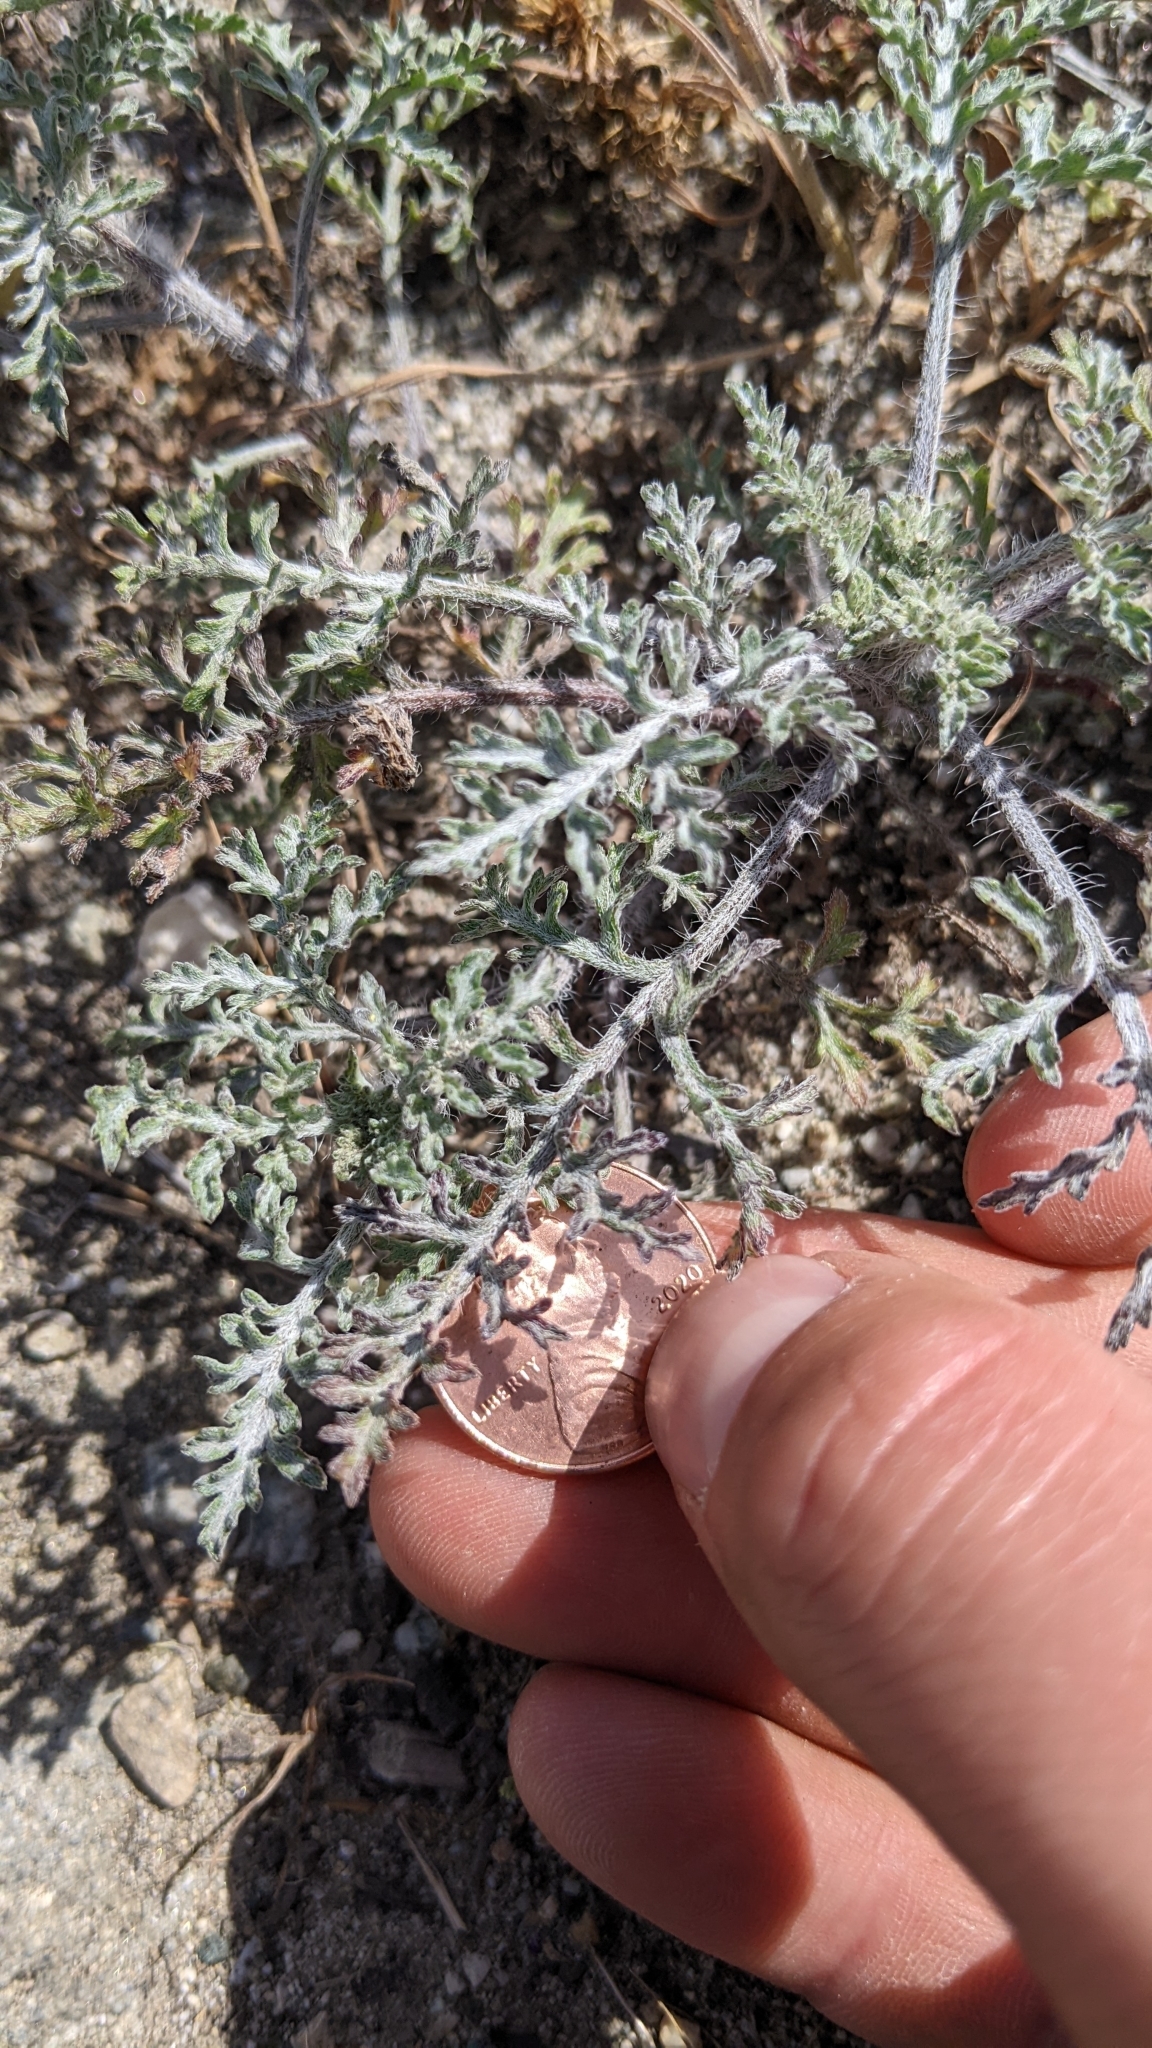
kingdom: Plantae
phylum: Tracheophyta
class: Magnoliopsida
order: Asterales
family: Asteraceae
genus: Ambrosia
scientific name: Ambrosia acanthicarpa
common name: Hooker's bur ragweed
